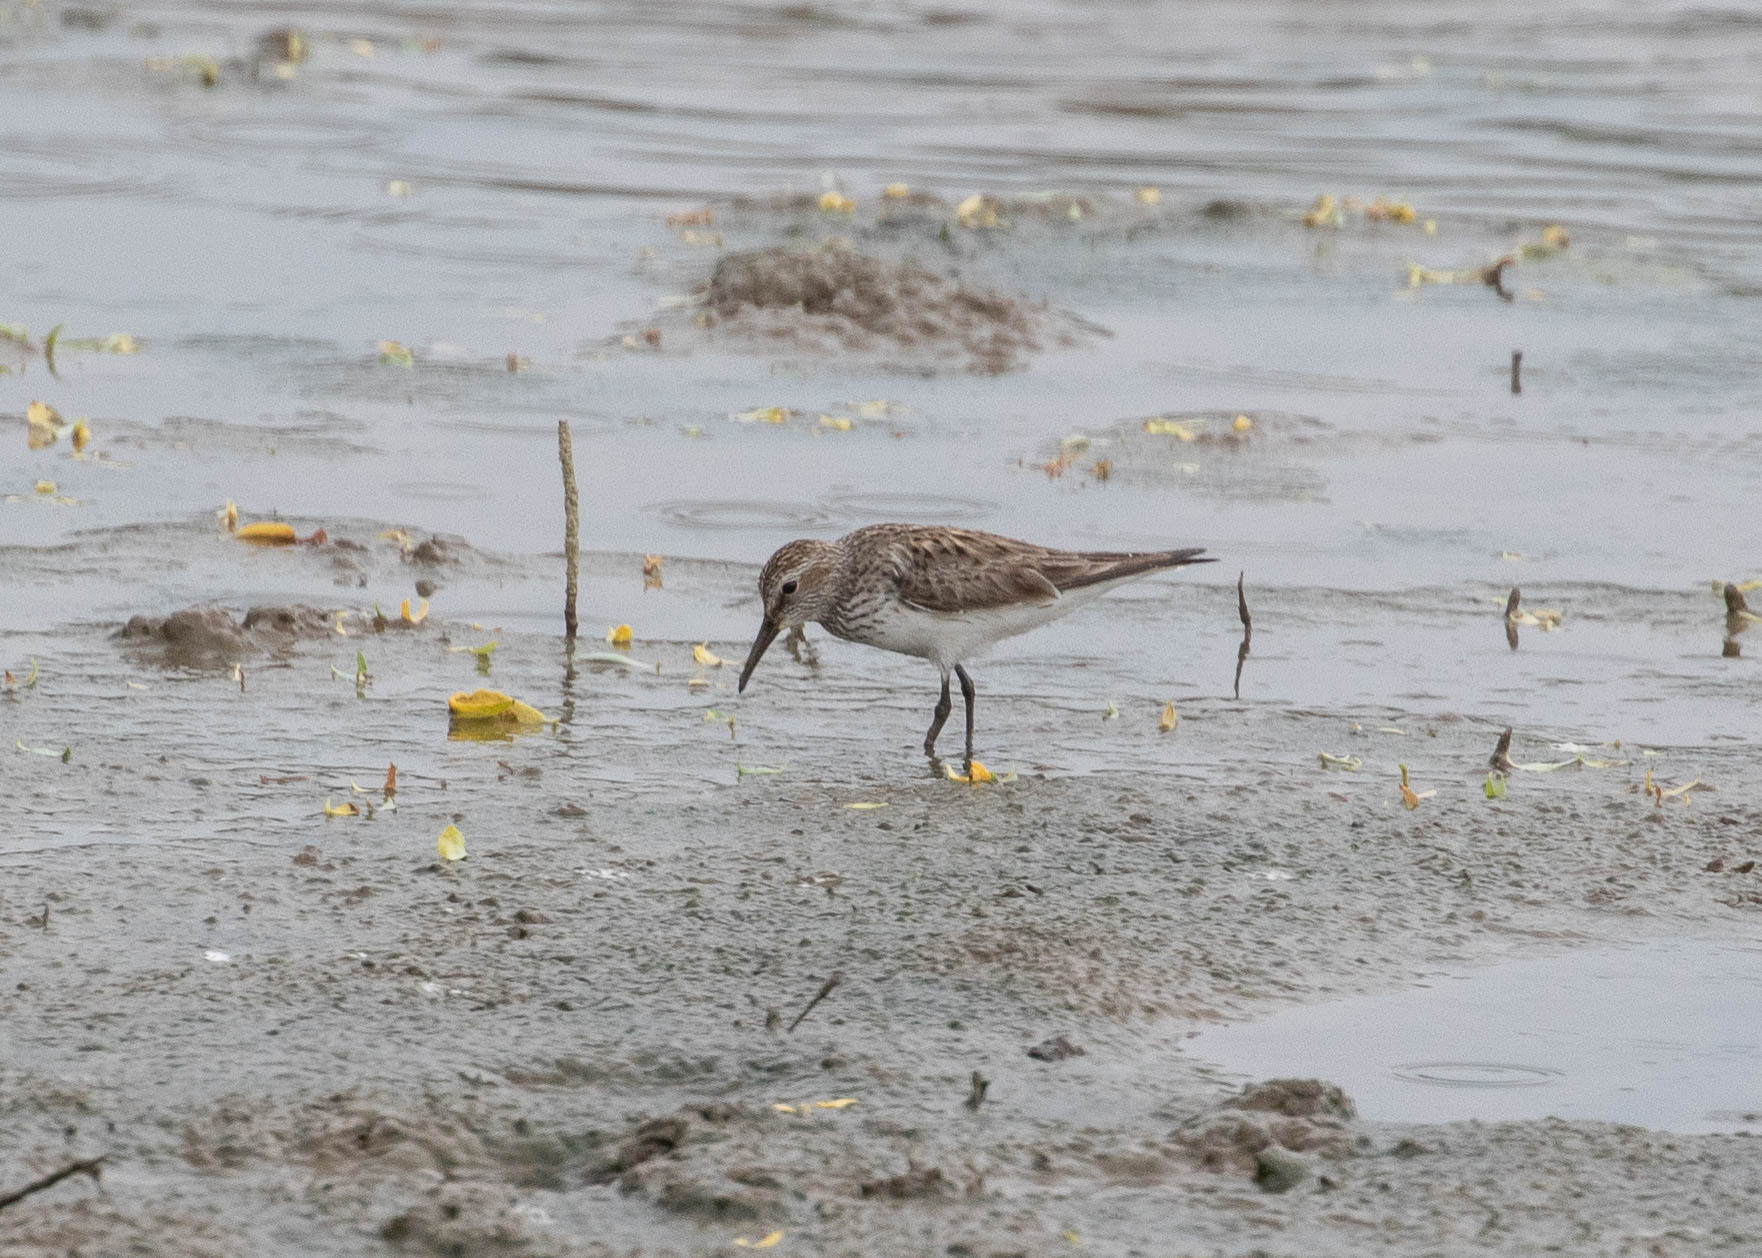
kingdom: Animalia
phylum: Chordata
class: Aves
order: Charadriiformes
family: Scolopacidae
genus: Calidris
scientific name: Calidris fuscicollis
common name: White-rumped sandpiper
